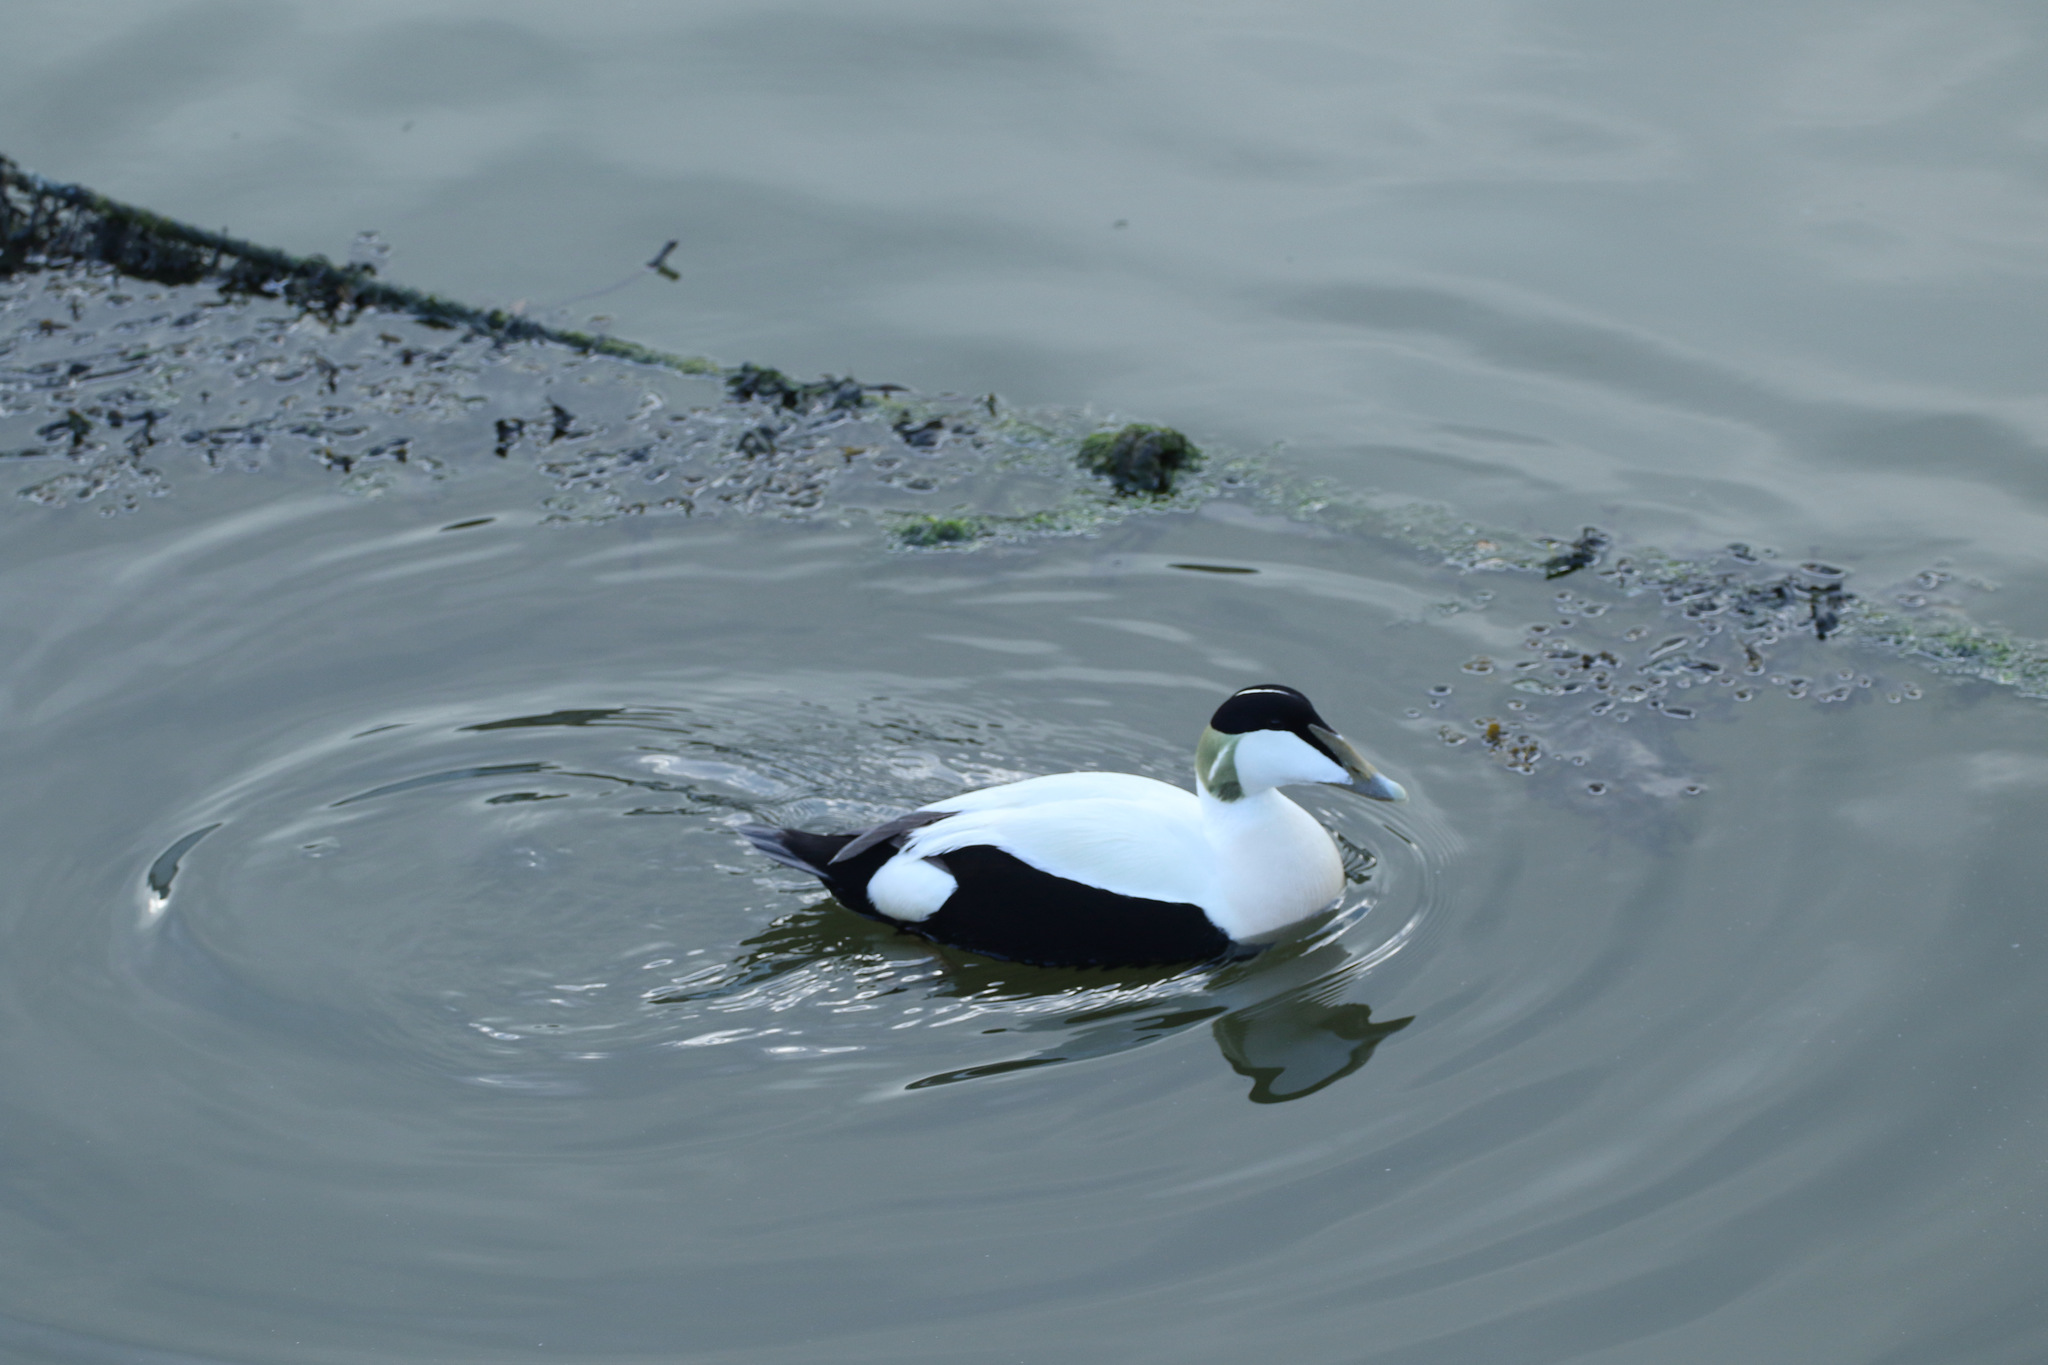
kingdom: Animalia
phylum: Chordata
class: Aves
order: Anseriformes
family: Anatidae
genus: Somateria
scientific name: Somateria mollissima
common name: Common eider
